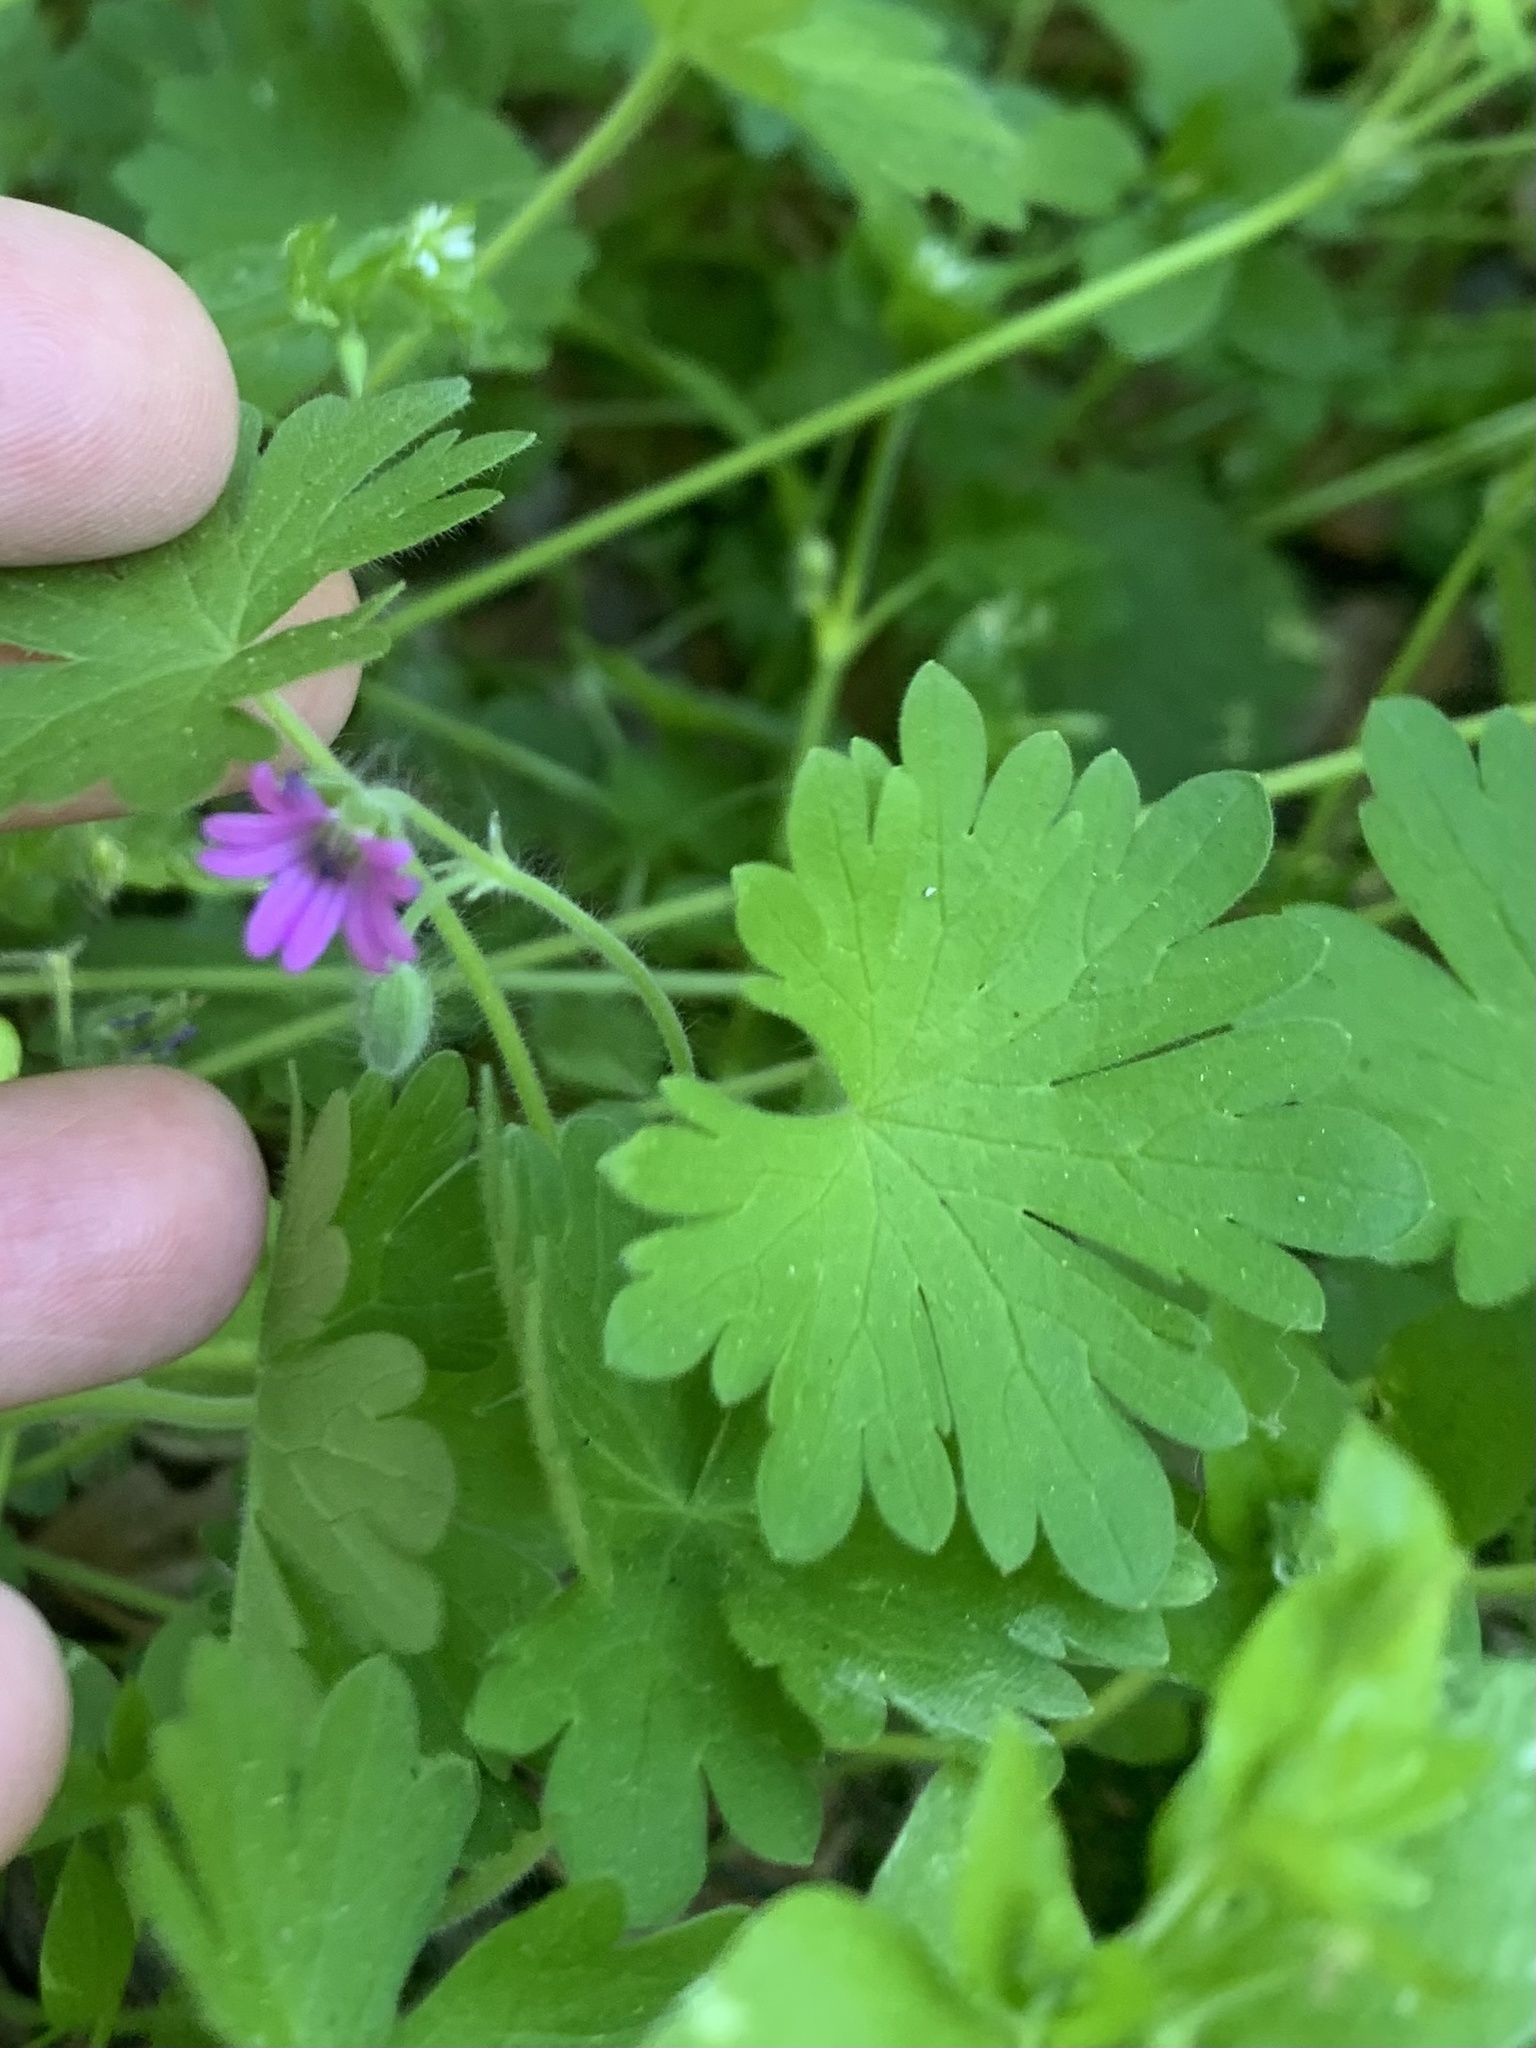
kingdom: Plantae
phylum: Tracheophyta
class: Magnoliopsida
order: Geraniales
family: Geraniaceae
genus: Geranium
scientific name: Geranium molle
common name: Dove's-foot crane's-bill
